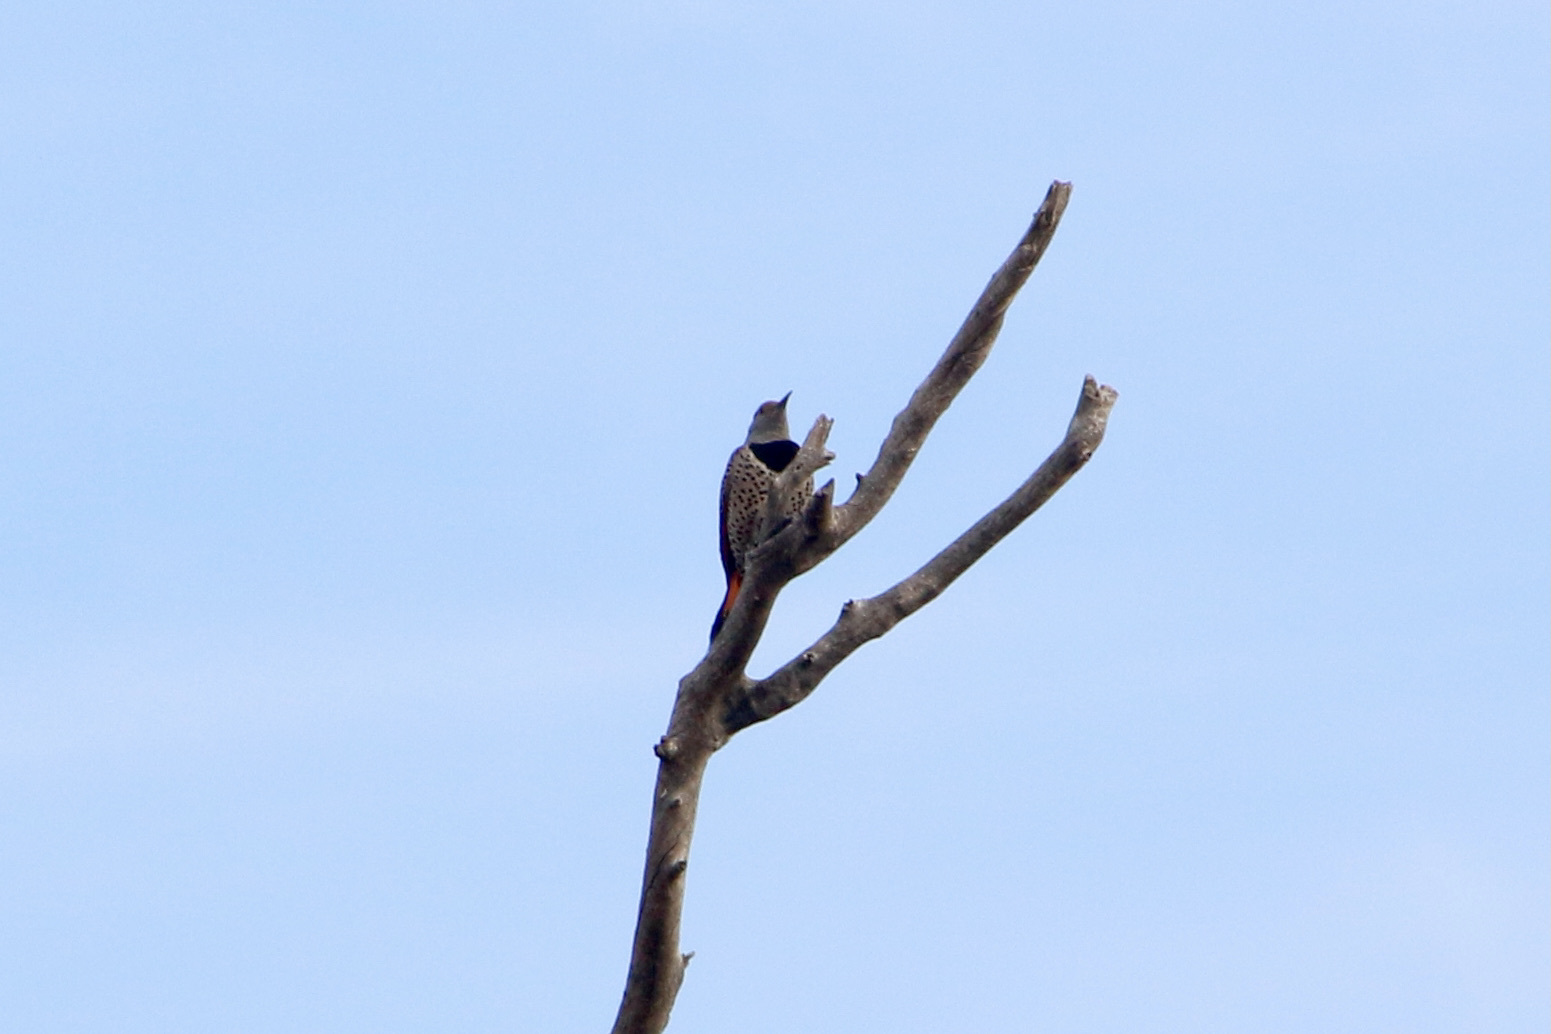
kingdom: Animalia
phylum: Chordata
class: Aves
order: Piciformes
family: Picidae
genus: Colaptes
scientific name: Colaptes auratus
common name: Northern flicker
